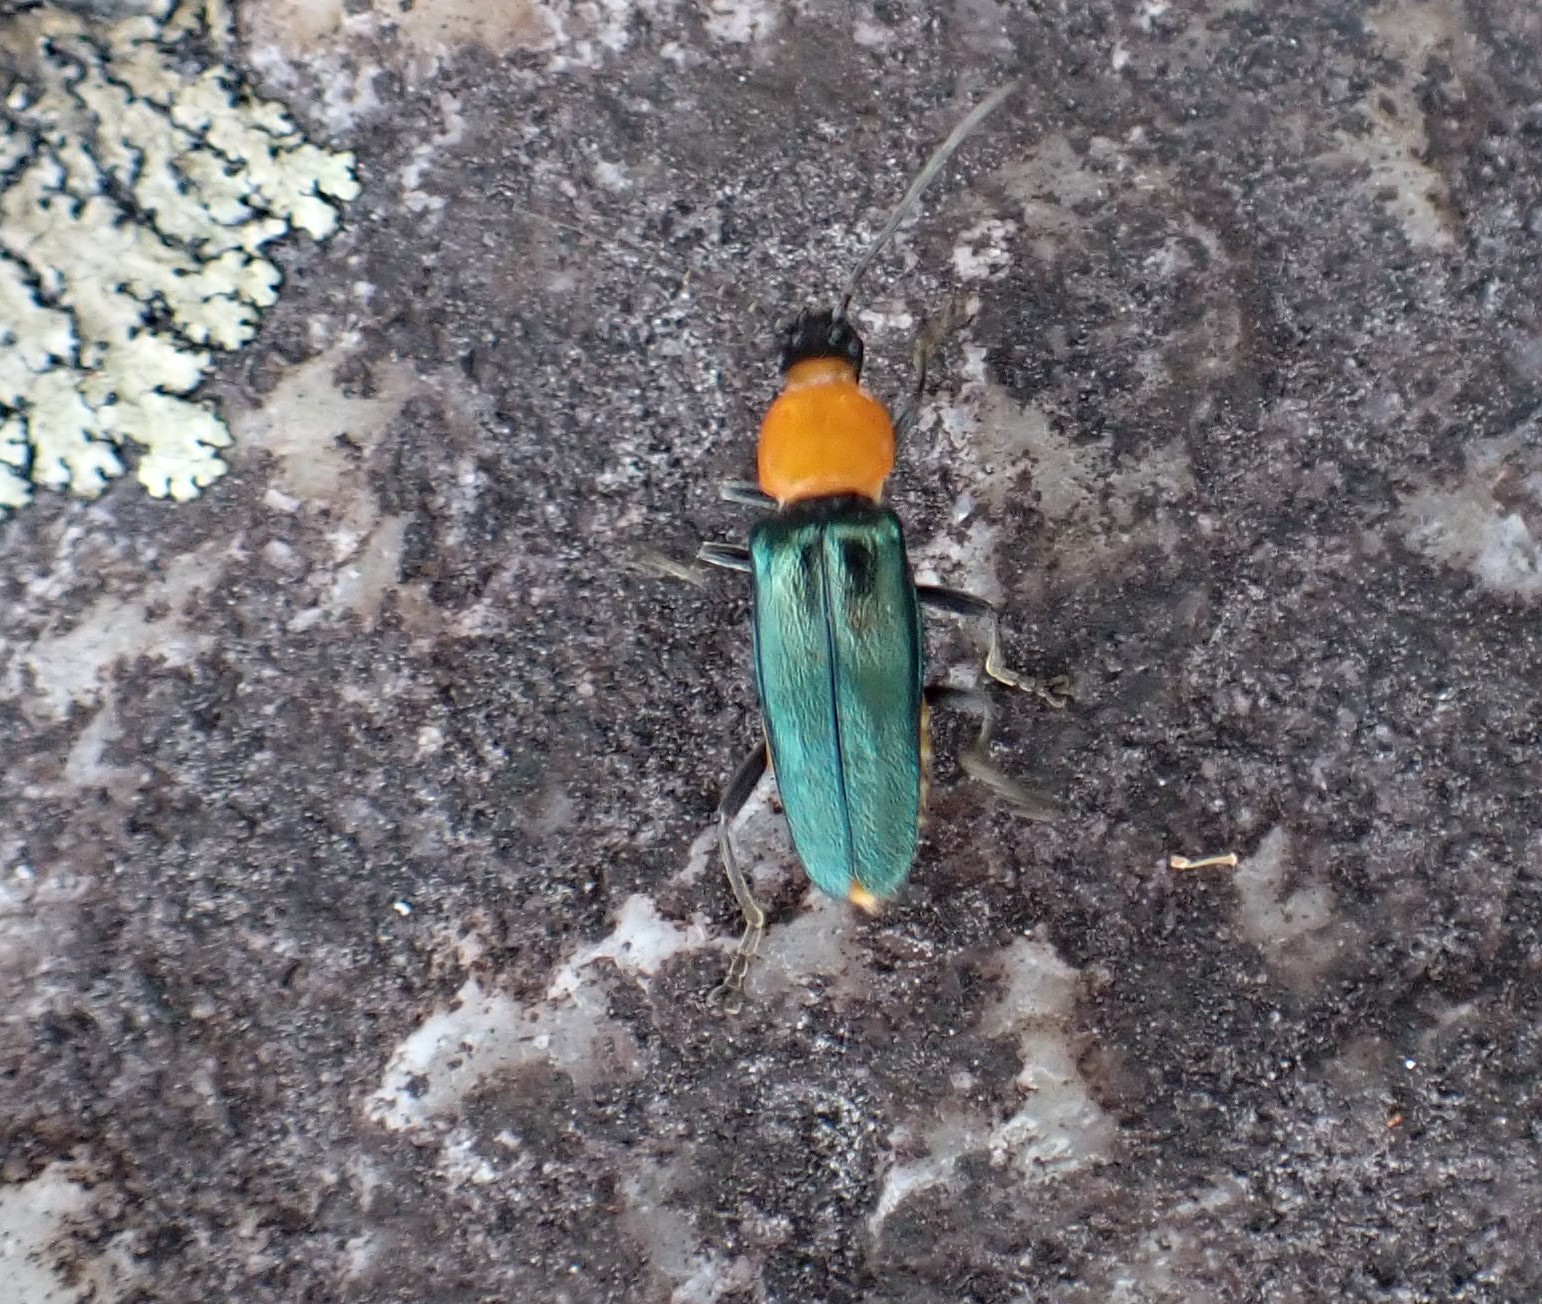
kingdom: Animalia
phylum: Arthropoda
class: Insecta
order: Coleoptera
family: Cantharidae
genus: Chauliognathus
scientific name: Chauliognathus
